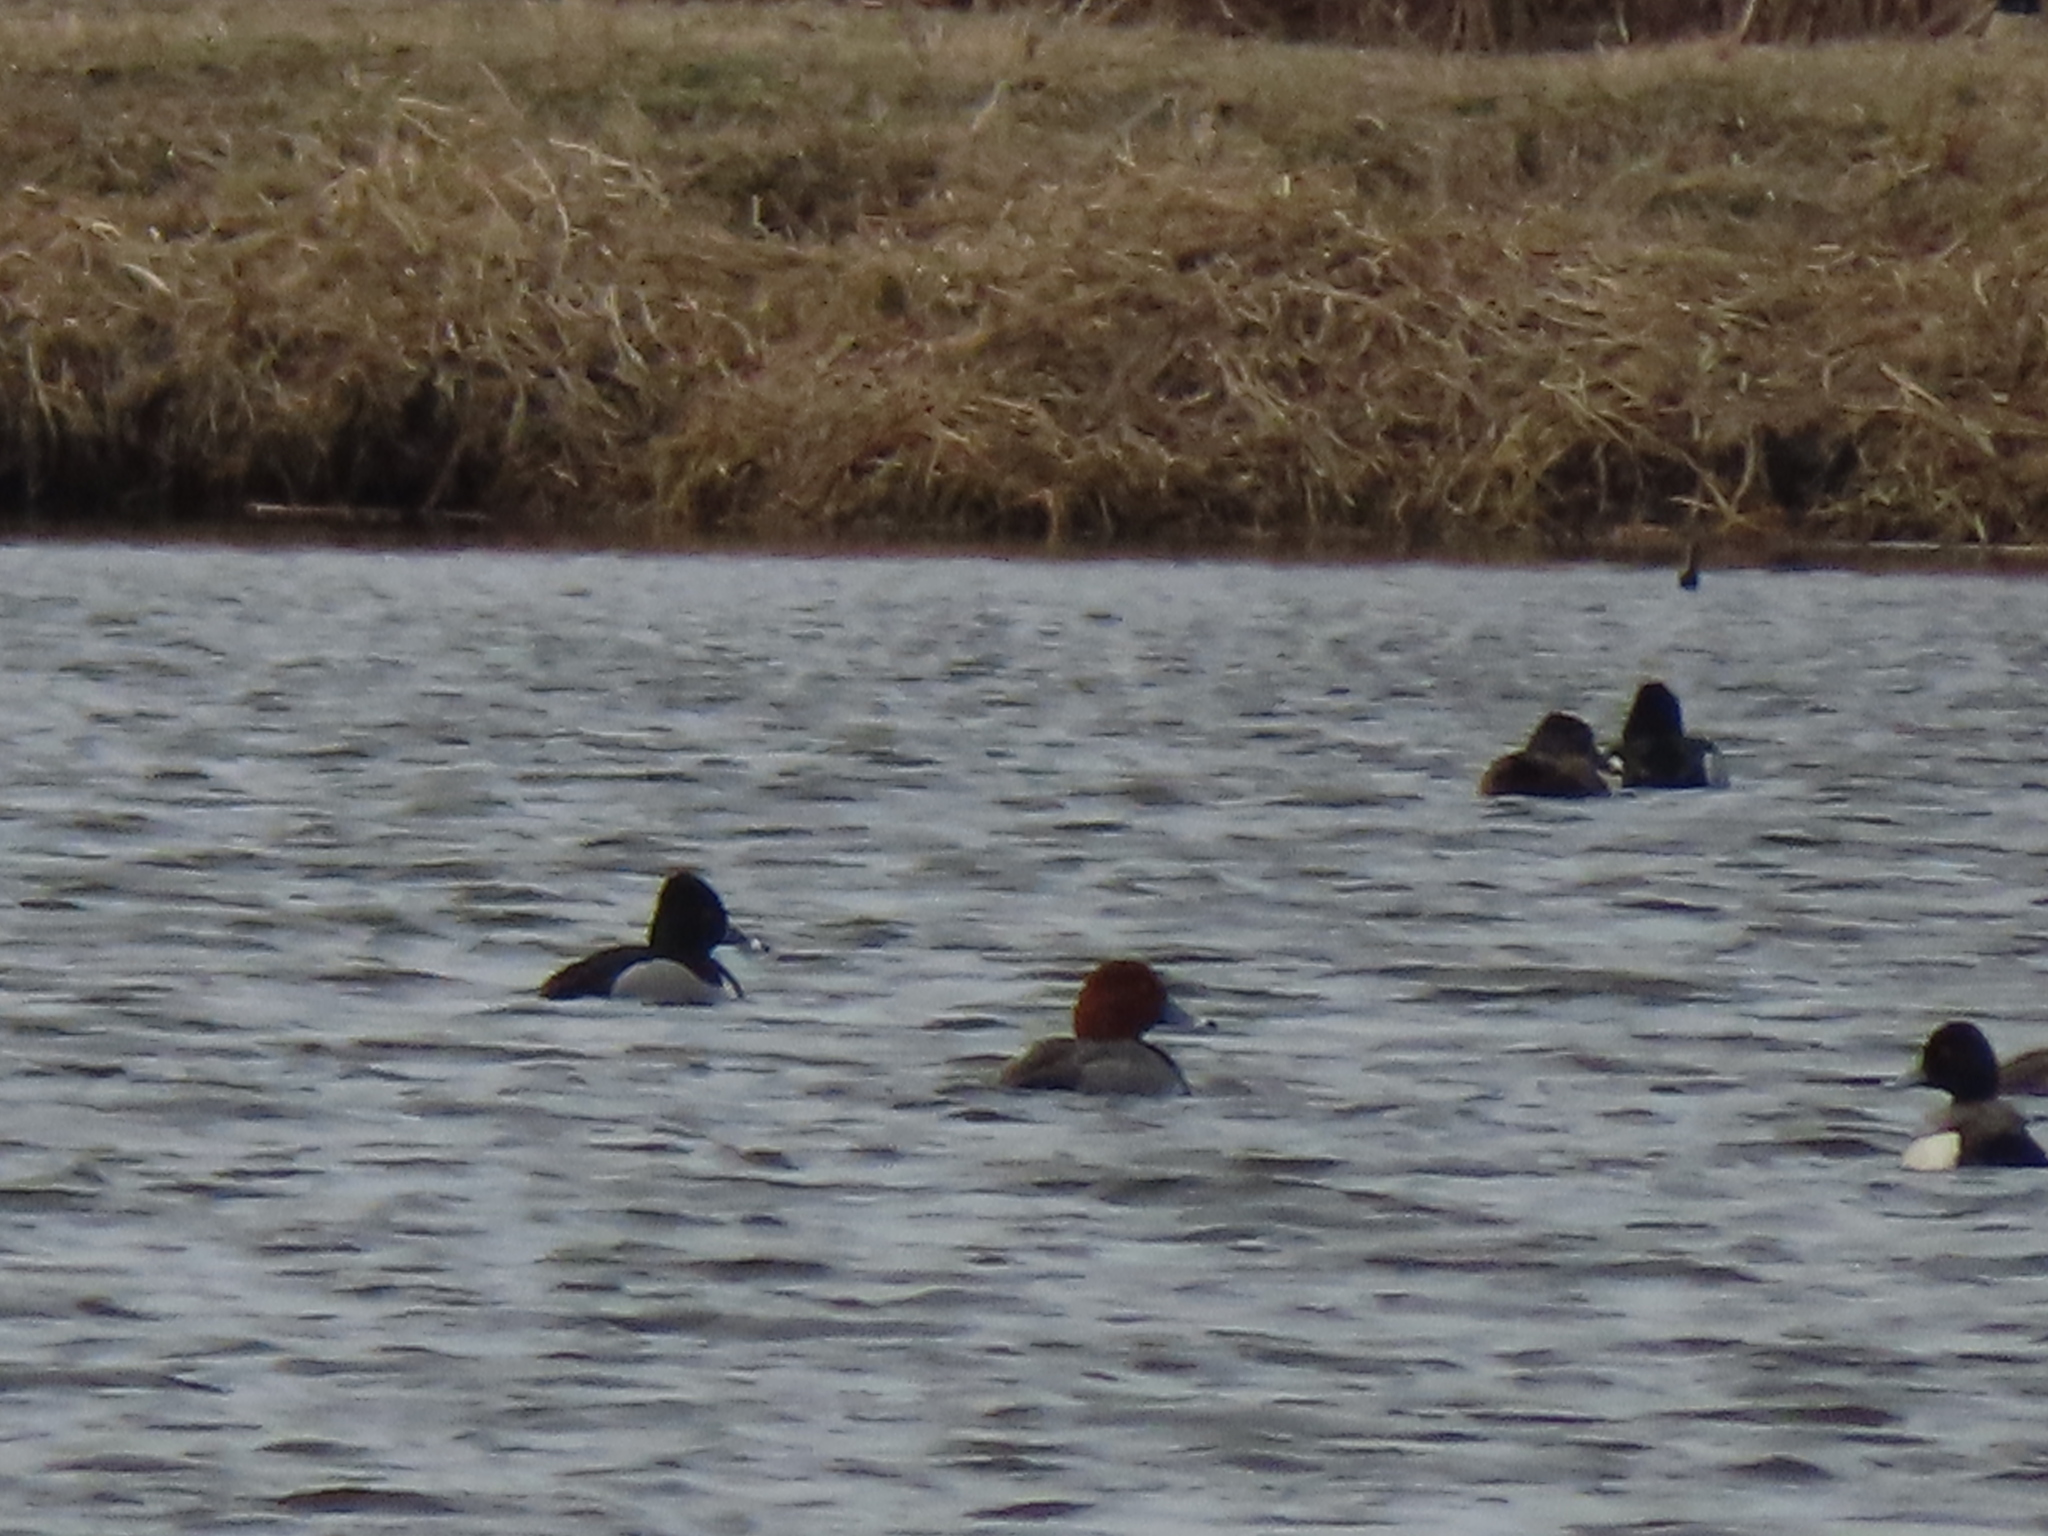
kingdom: Animalia
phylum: Chordata
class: Aves
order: Anseriformes
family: Anatidae
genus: Aythya
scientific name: Aythya americana
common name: Redhead
